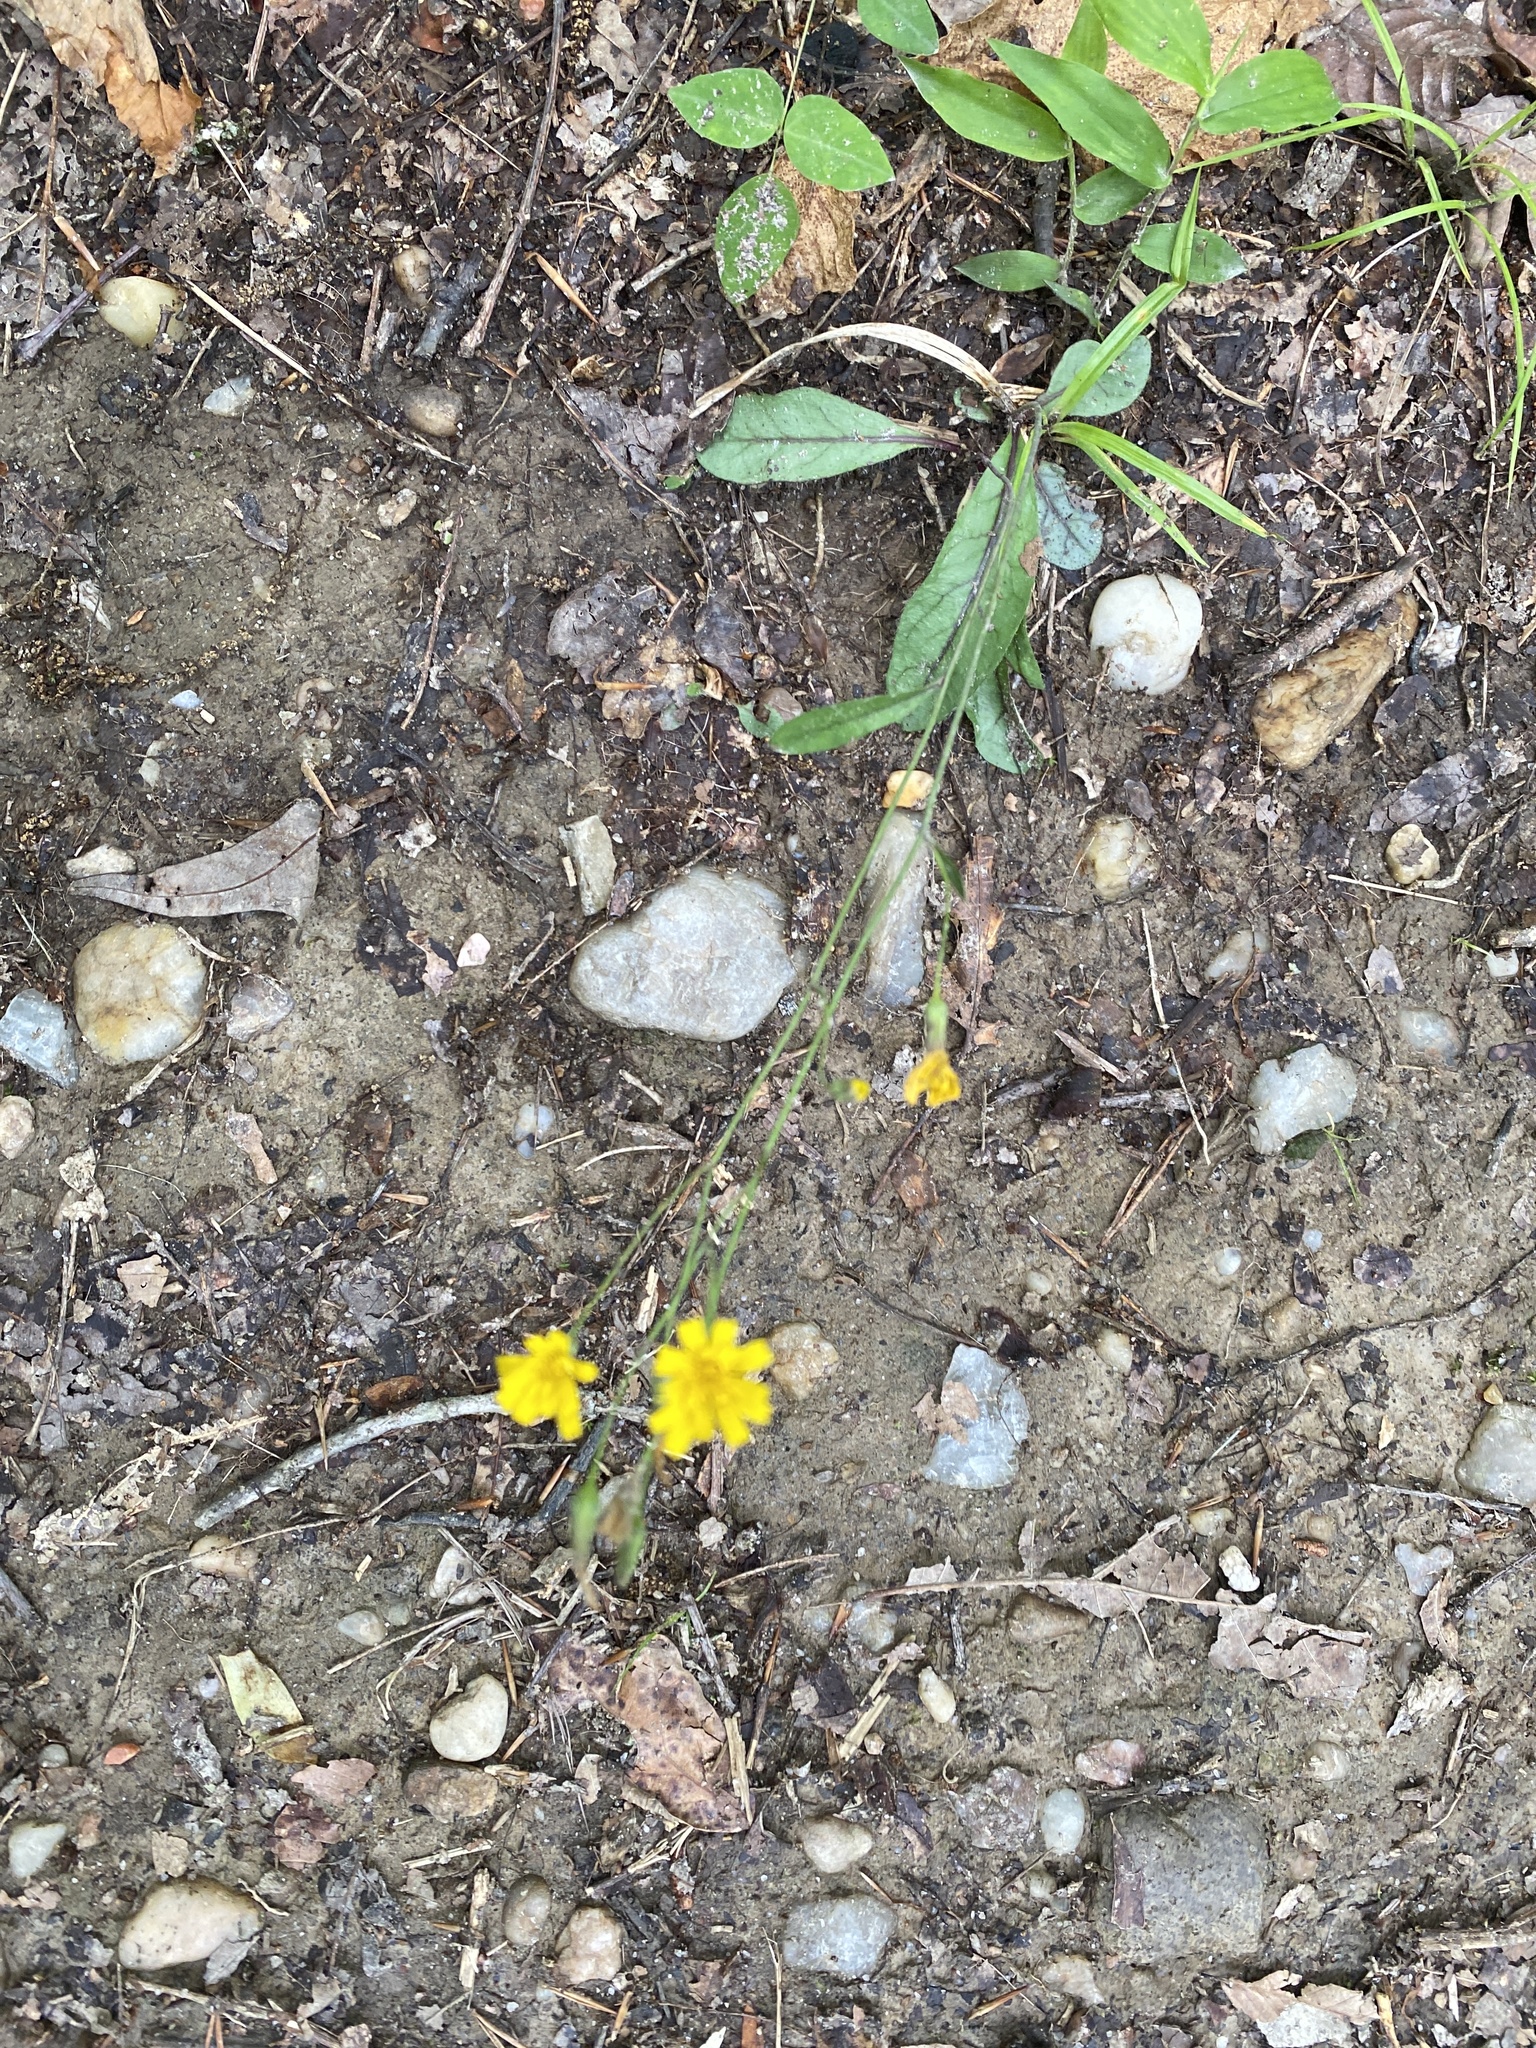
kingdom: Plantae
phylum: Tracheophyta
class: Magnoliopsida
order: Asterales
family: Asteraceae
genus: Hieracium
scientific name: Hieracium venosum
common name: Rattlesnake hawkweed
